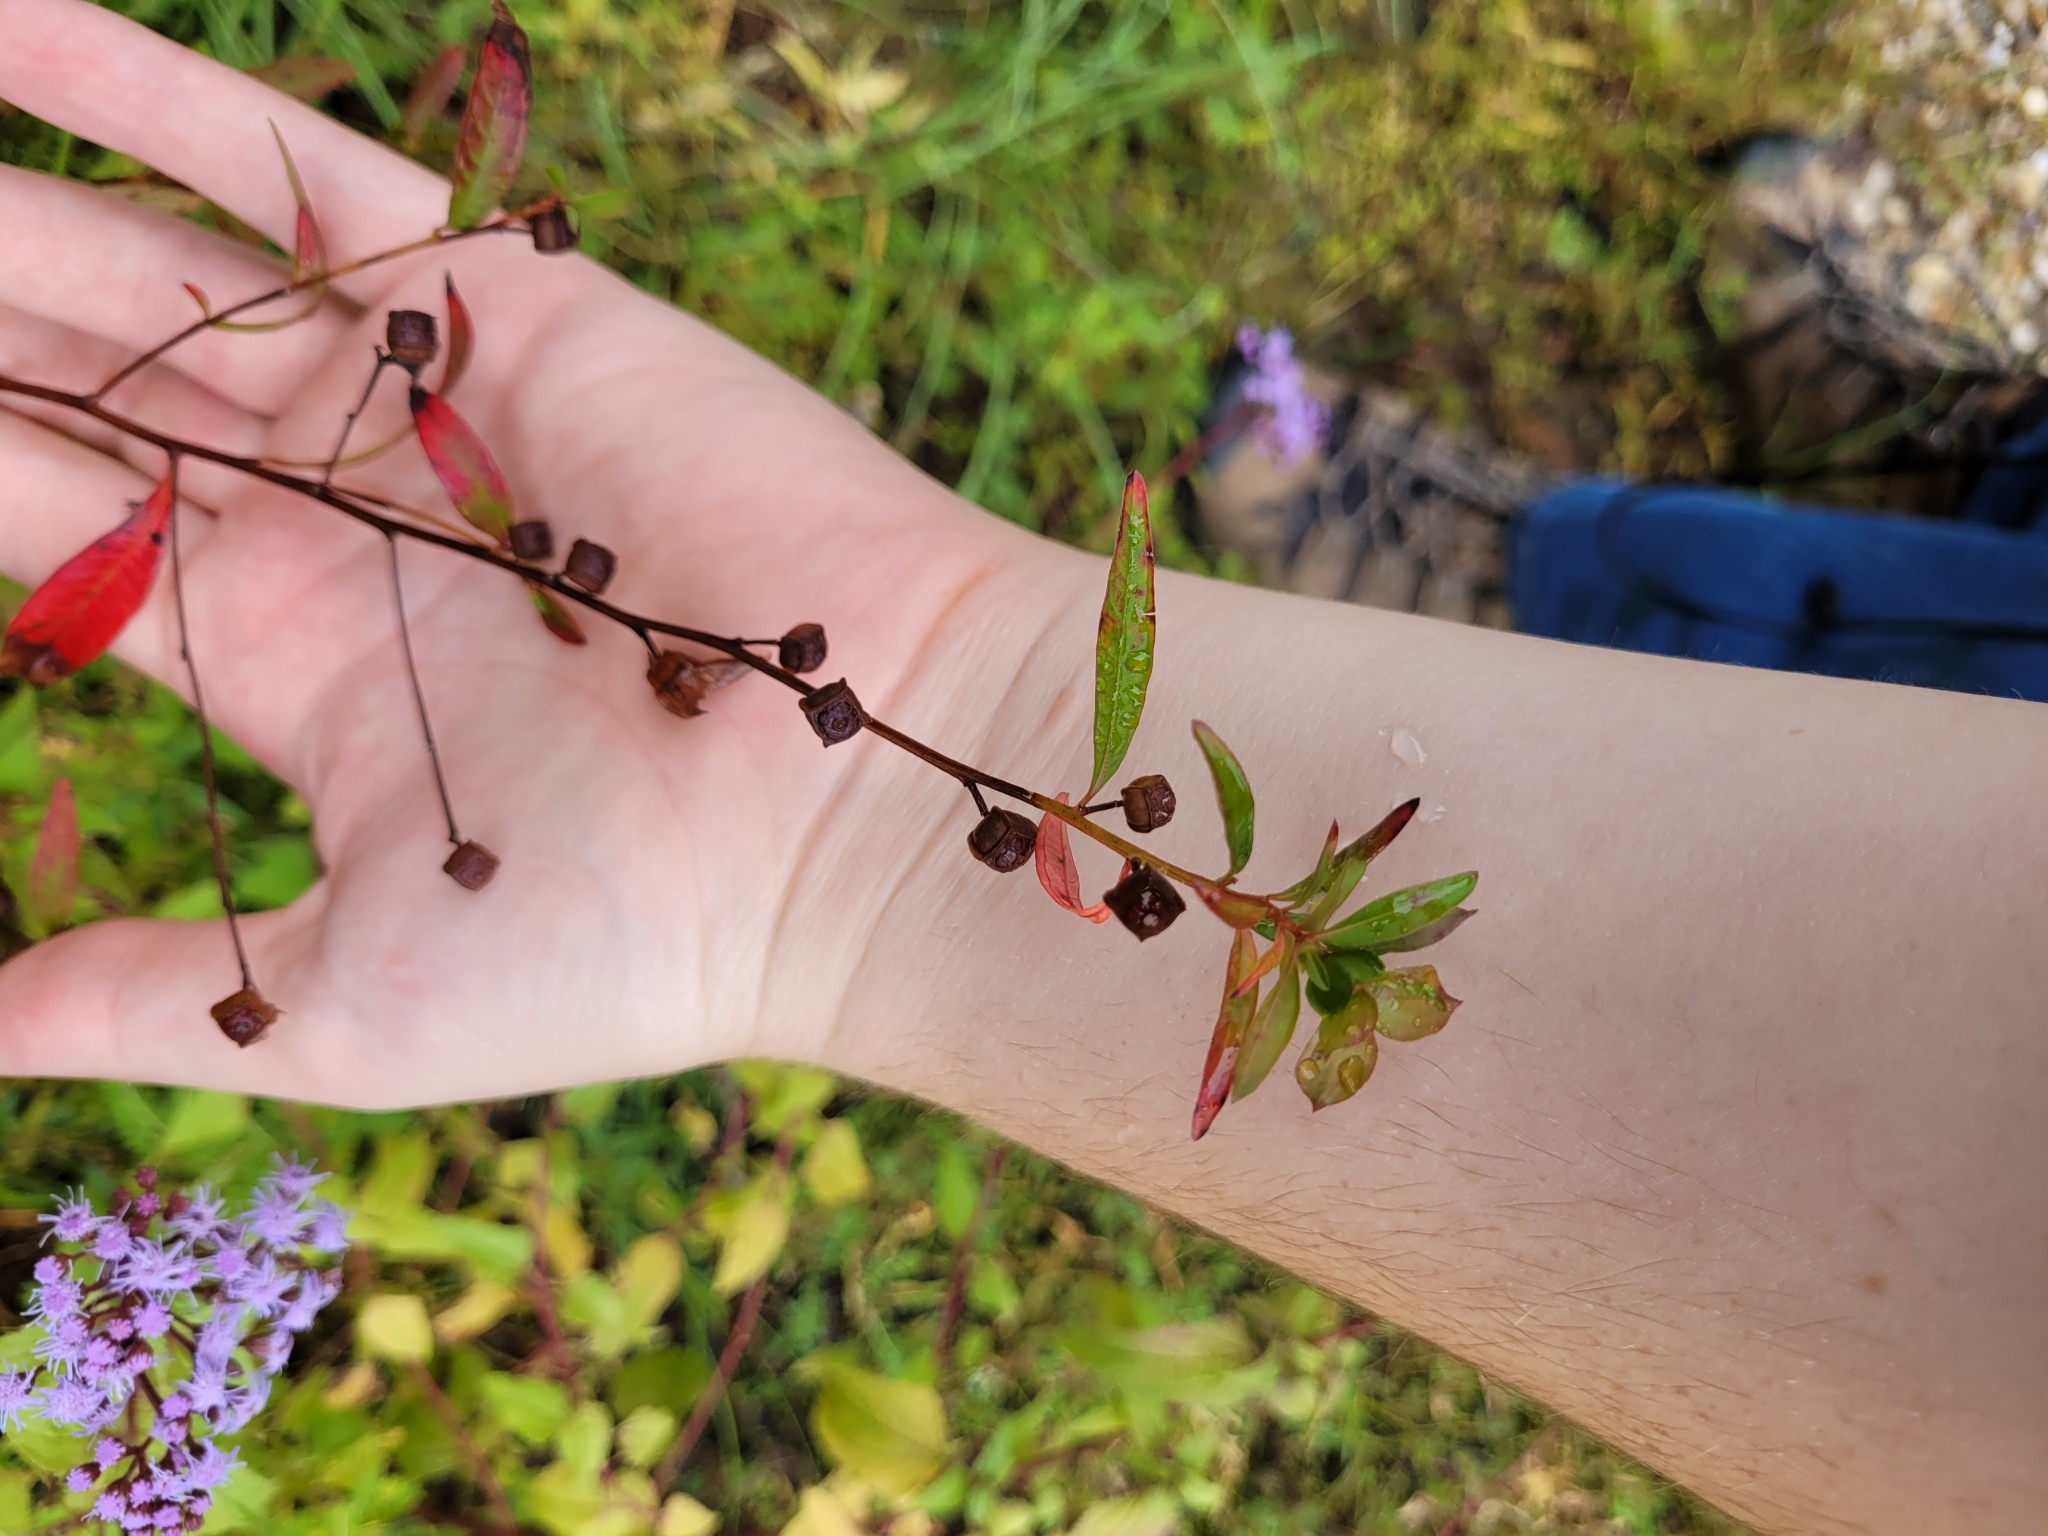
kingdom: Plantae
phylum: Tracheophyta
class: Magnoliopsida
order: Myrtales
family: Onagraceae
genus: Ludwigia
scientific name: Ludwigia alternifolia
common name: Rattlebox
